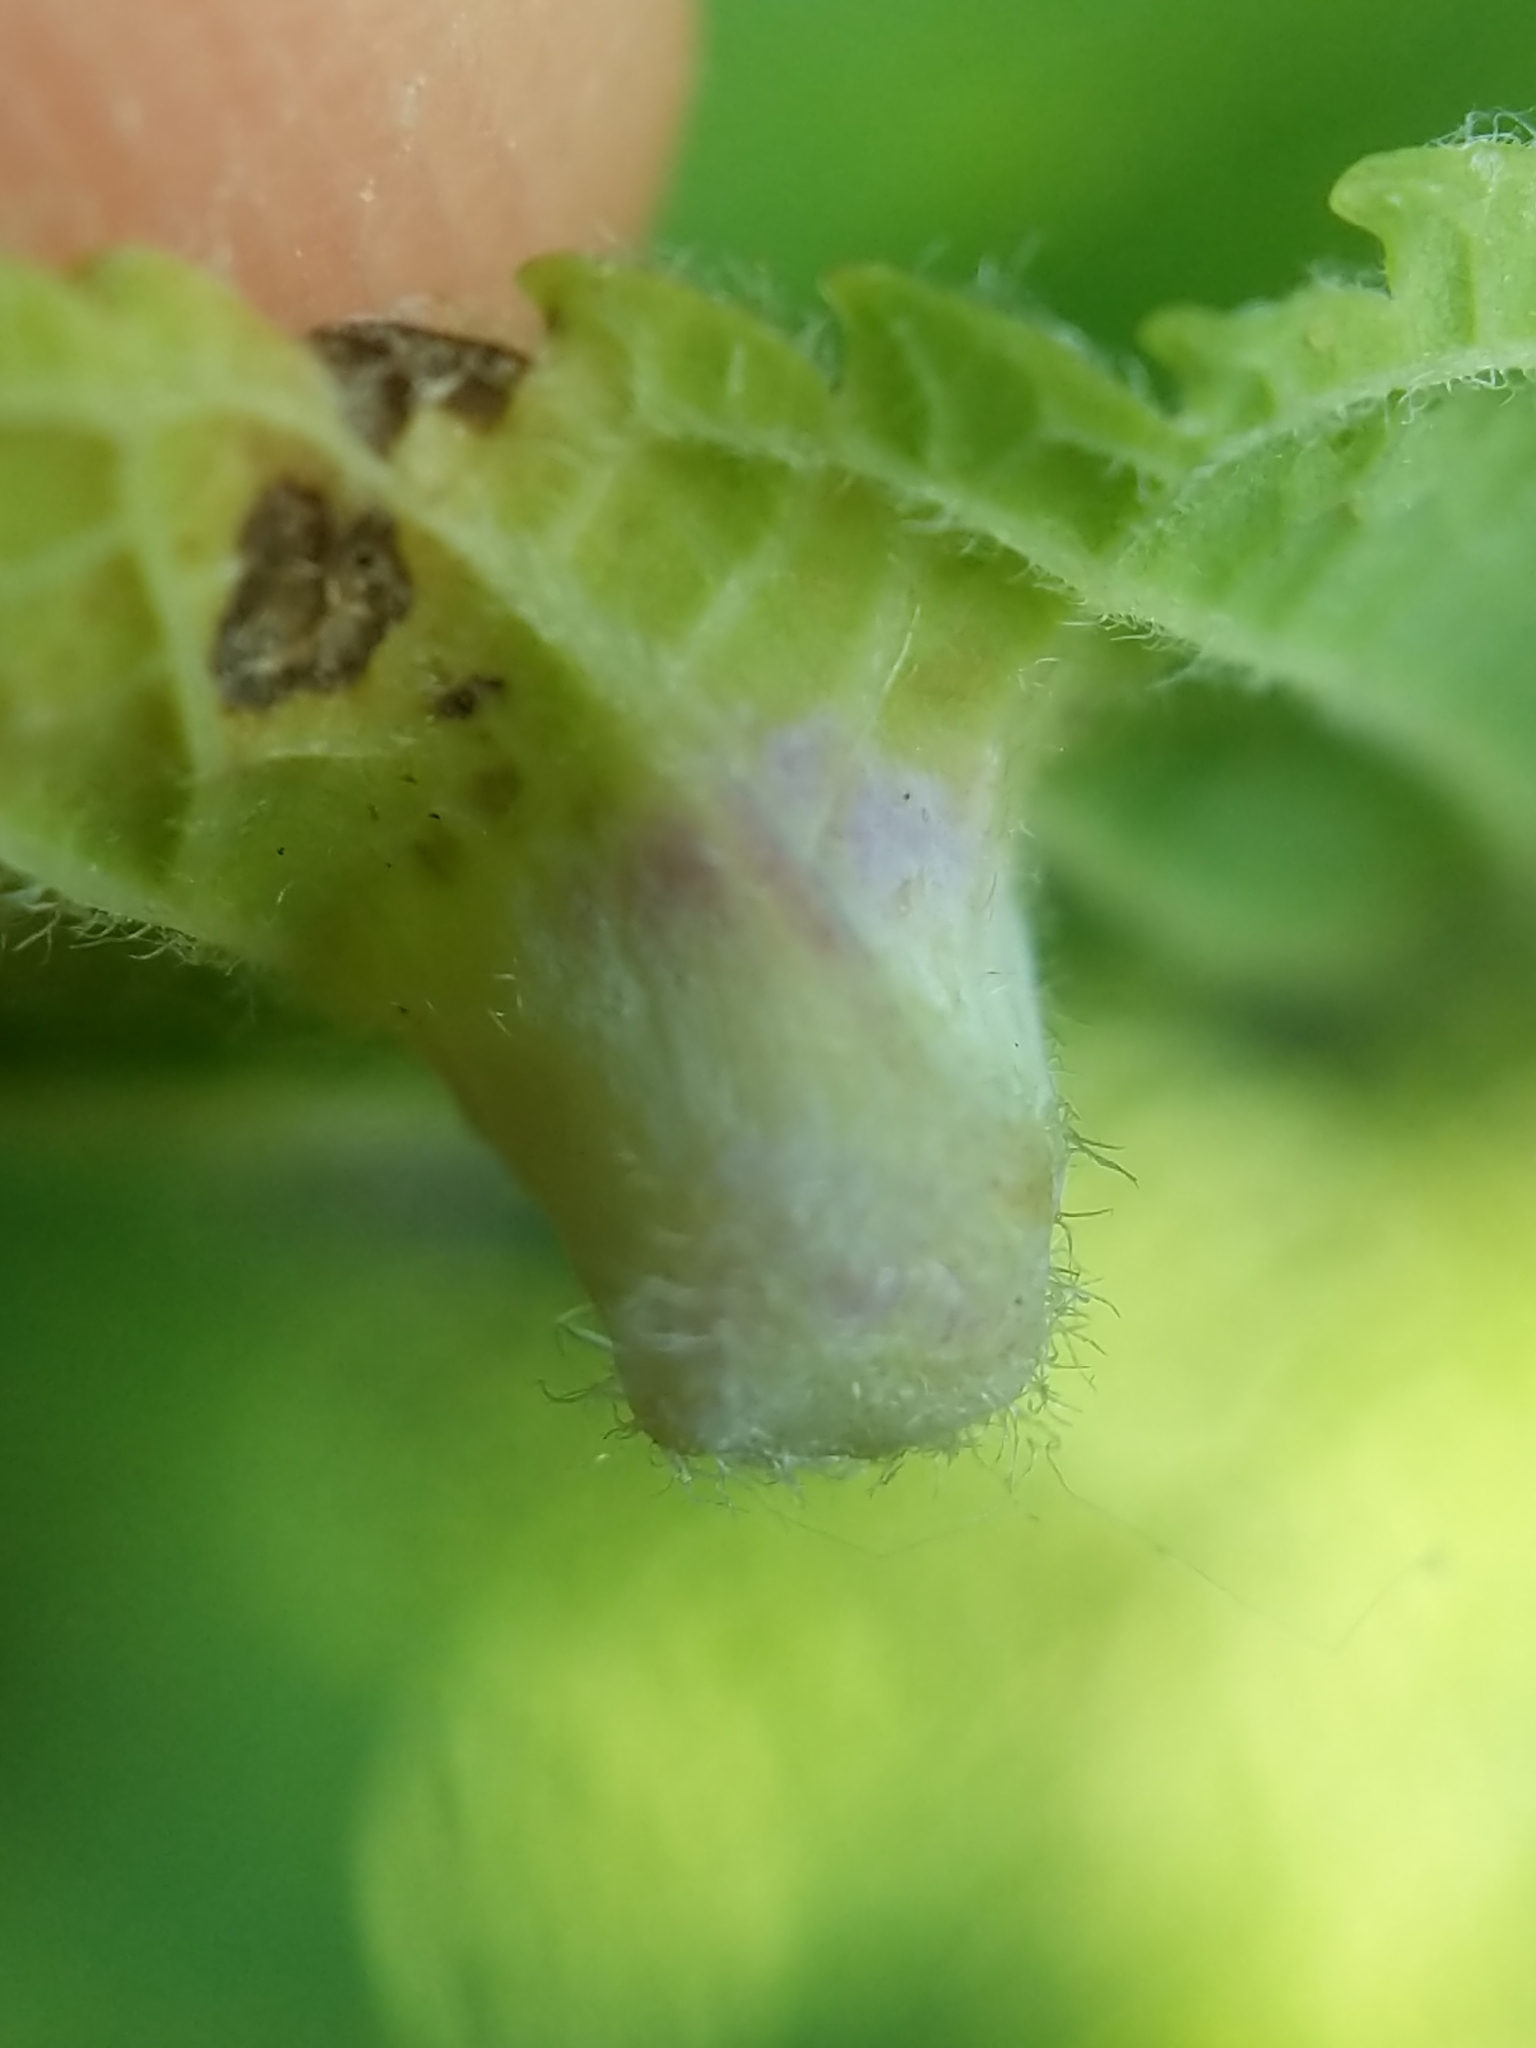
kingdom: Animalia
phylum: Arthropoda
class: Insecta
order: Hemiptera
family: Aphalaridae
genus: Pachypsylla
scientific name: Pachypsylla celtidismamma
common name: Hackberry nipplegall psyllid
